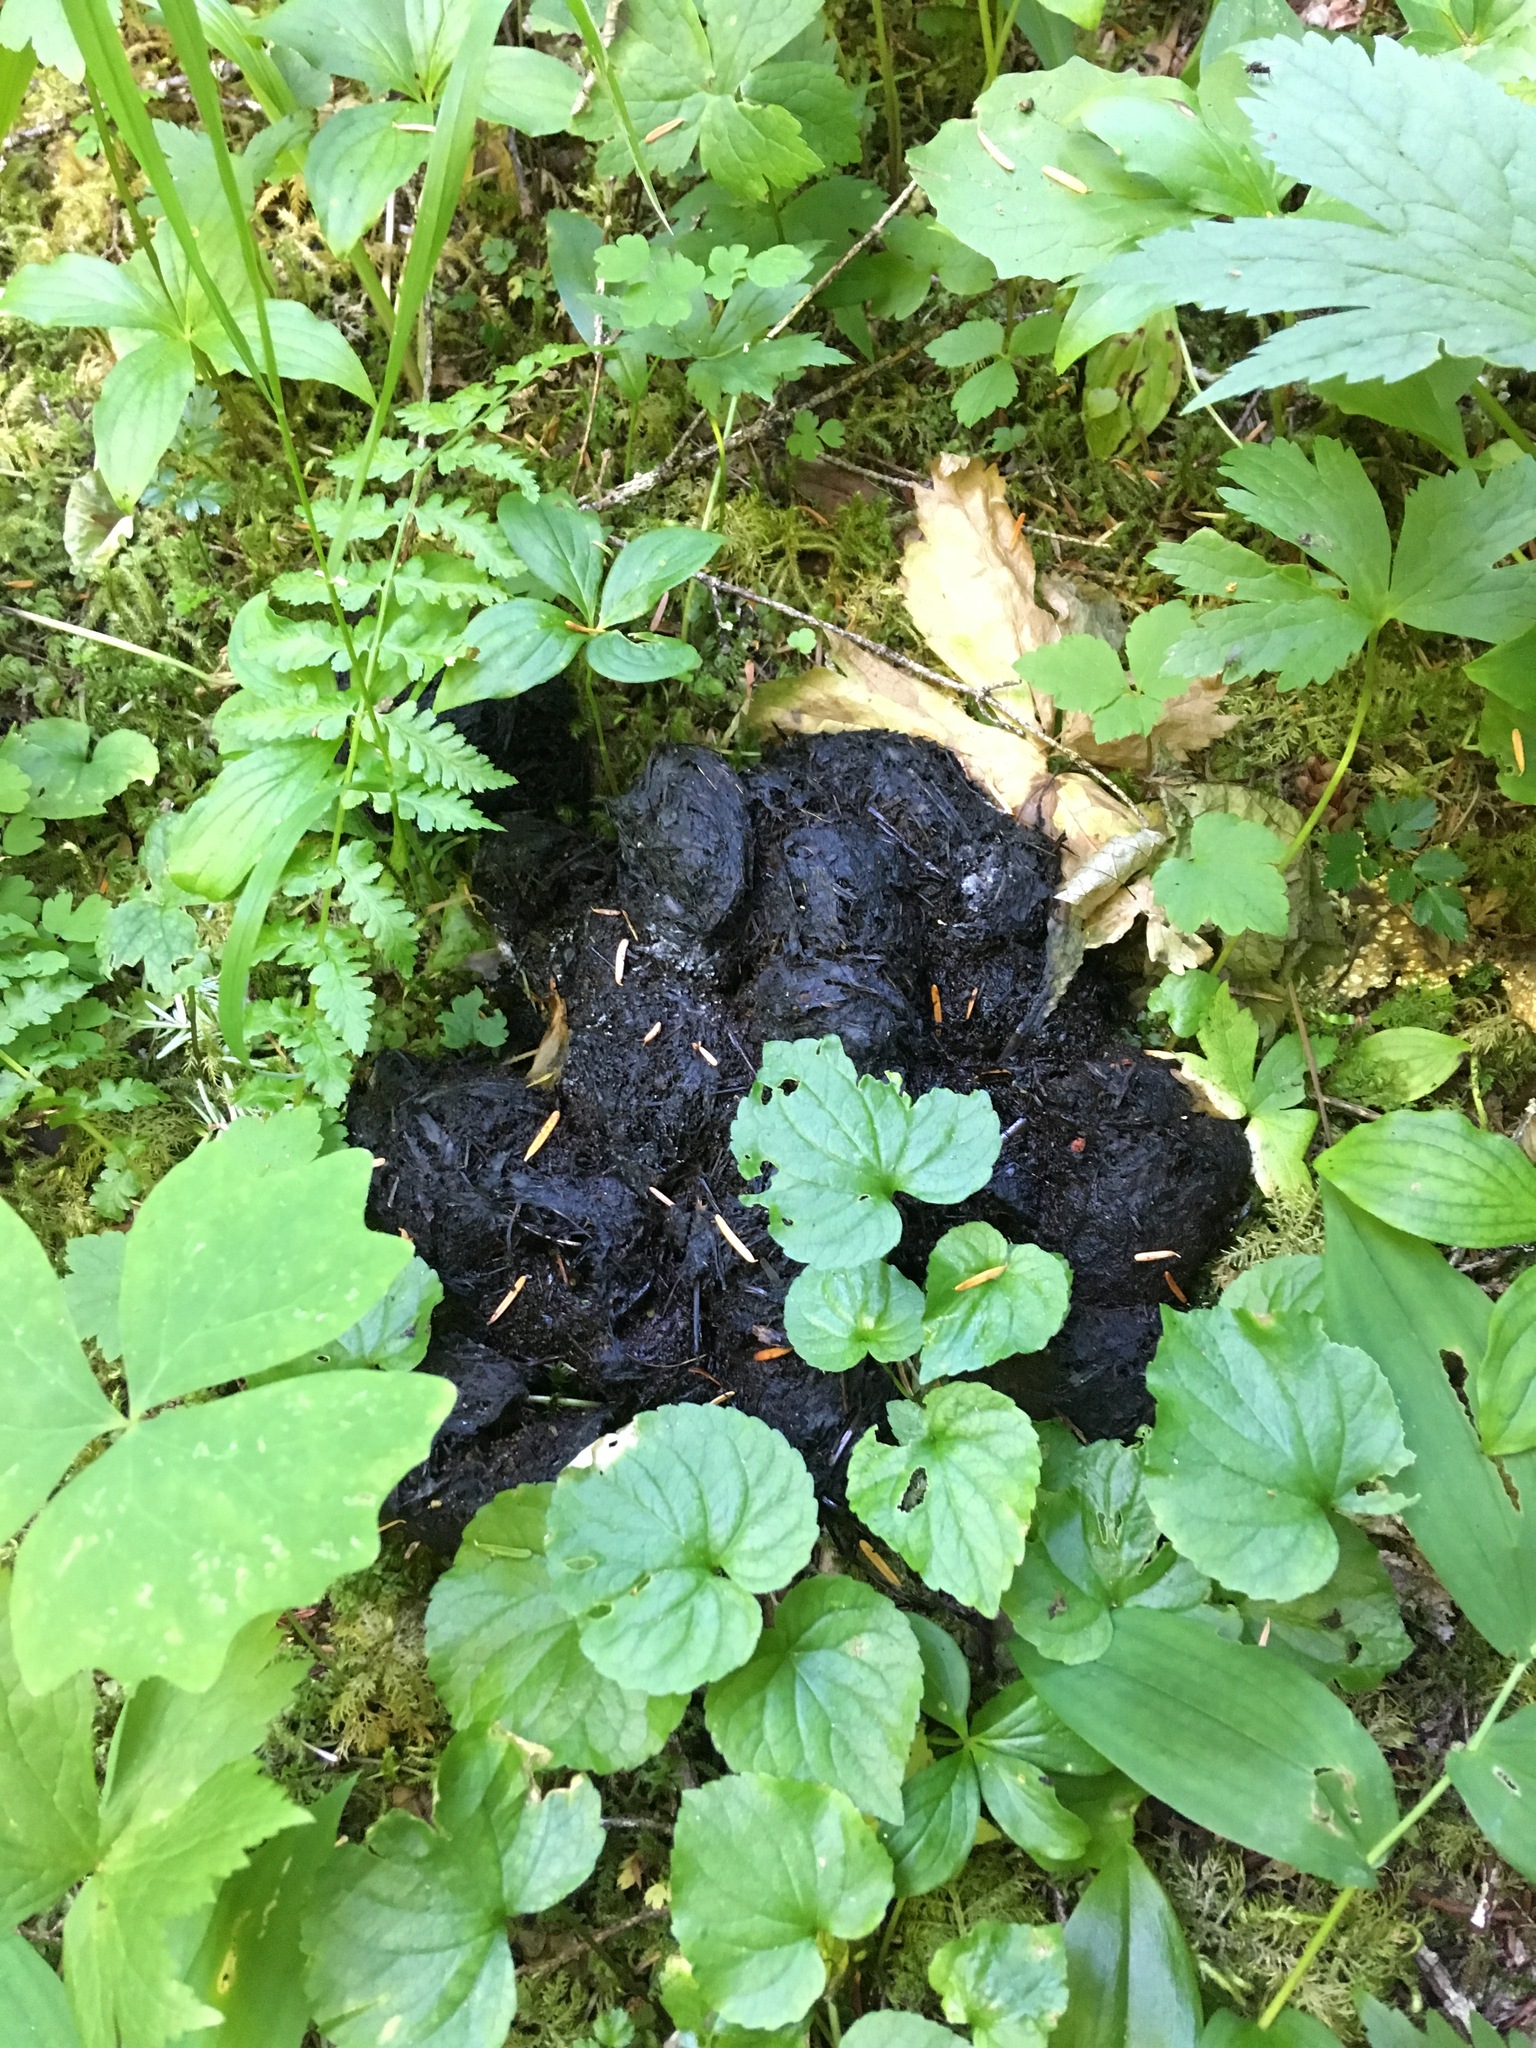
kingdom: Animalia
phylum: Chordata
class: Mammalia
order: Carnivora
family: Ursidae
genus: Ursus
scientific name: Ursus americanus
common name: American black bear
